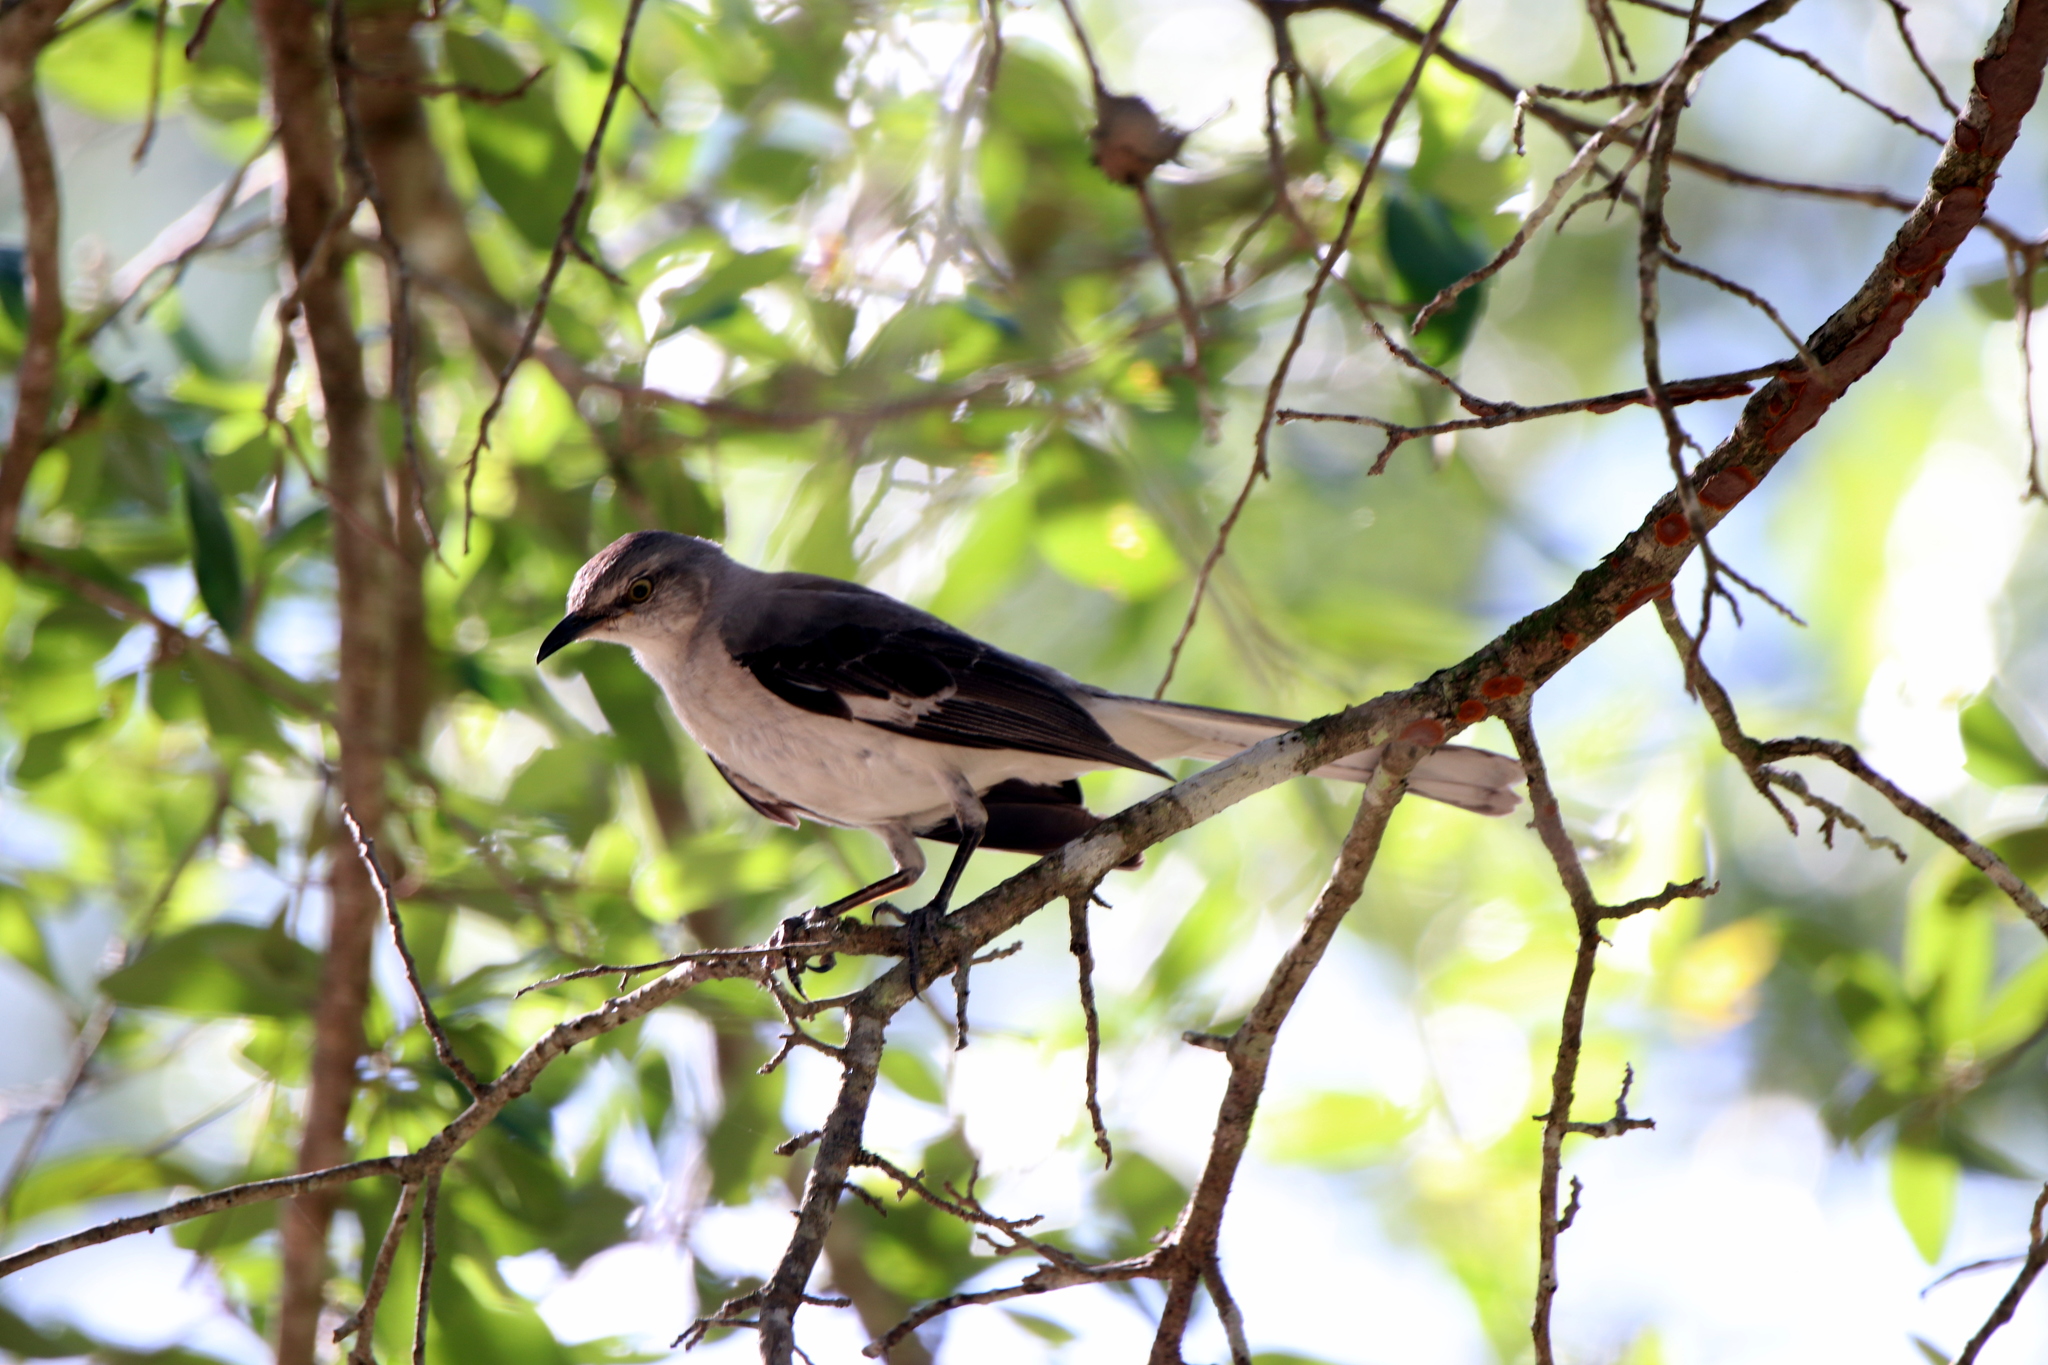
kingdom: Animalia
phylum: Chordata
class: Aves
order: Passeriformes
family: Mimidae
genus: Mimus
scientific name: Mimus polyglottos
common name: Northern mockingbird
